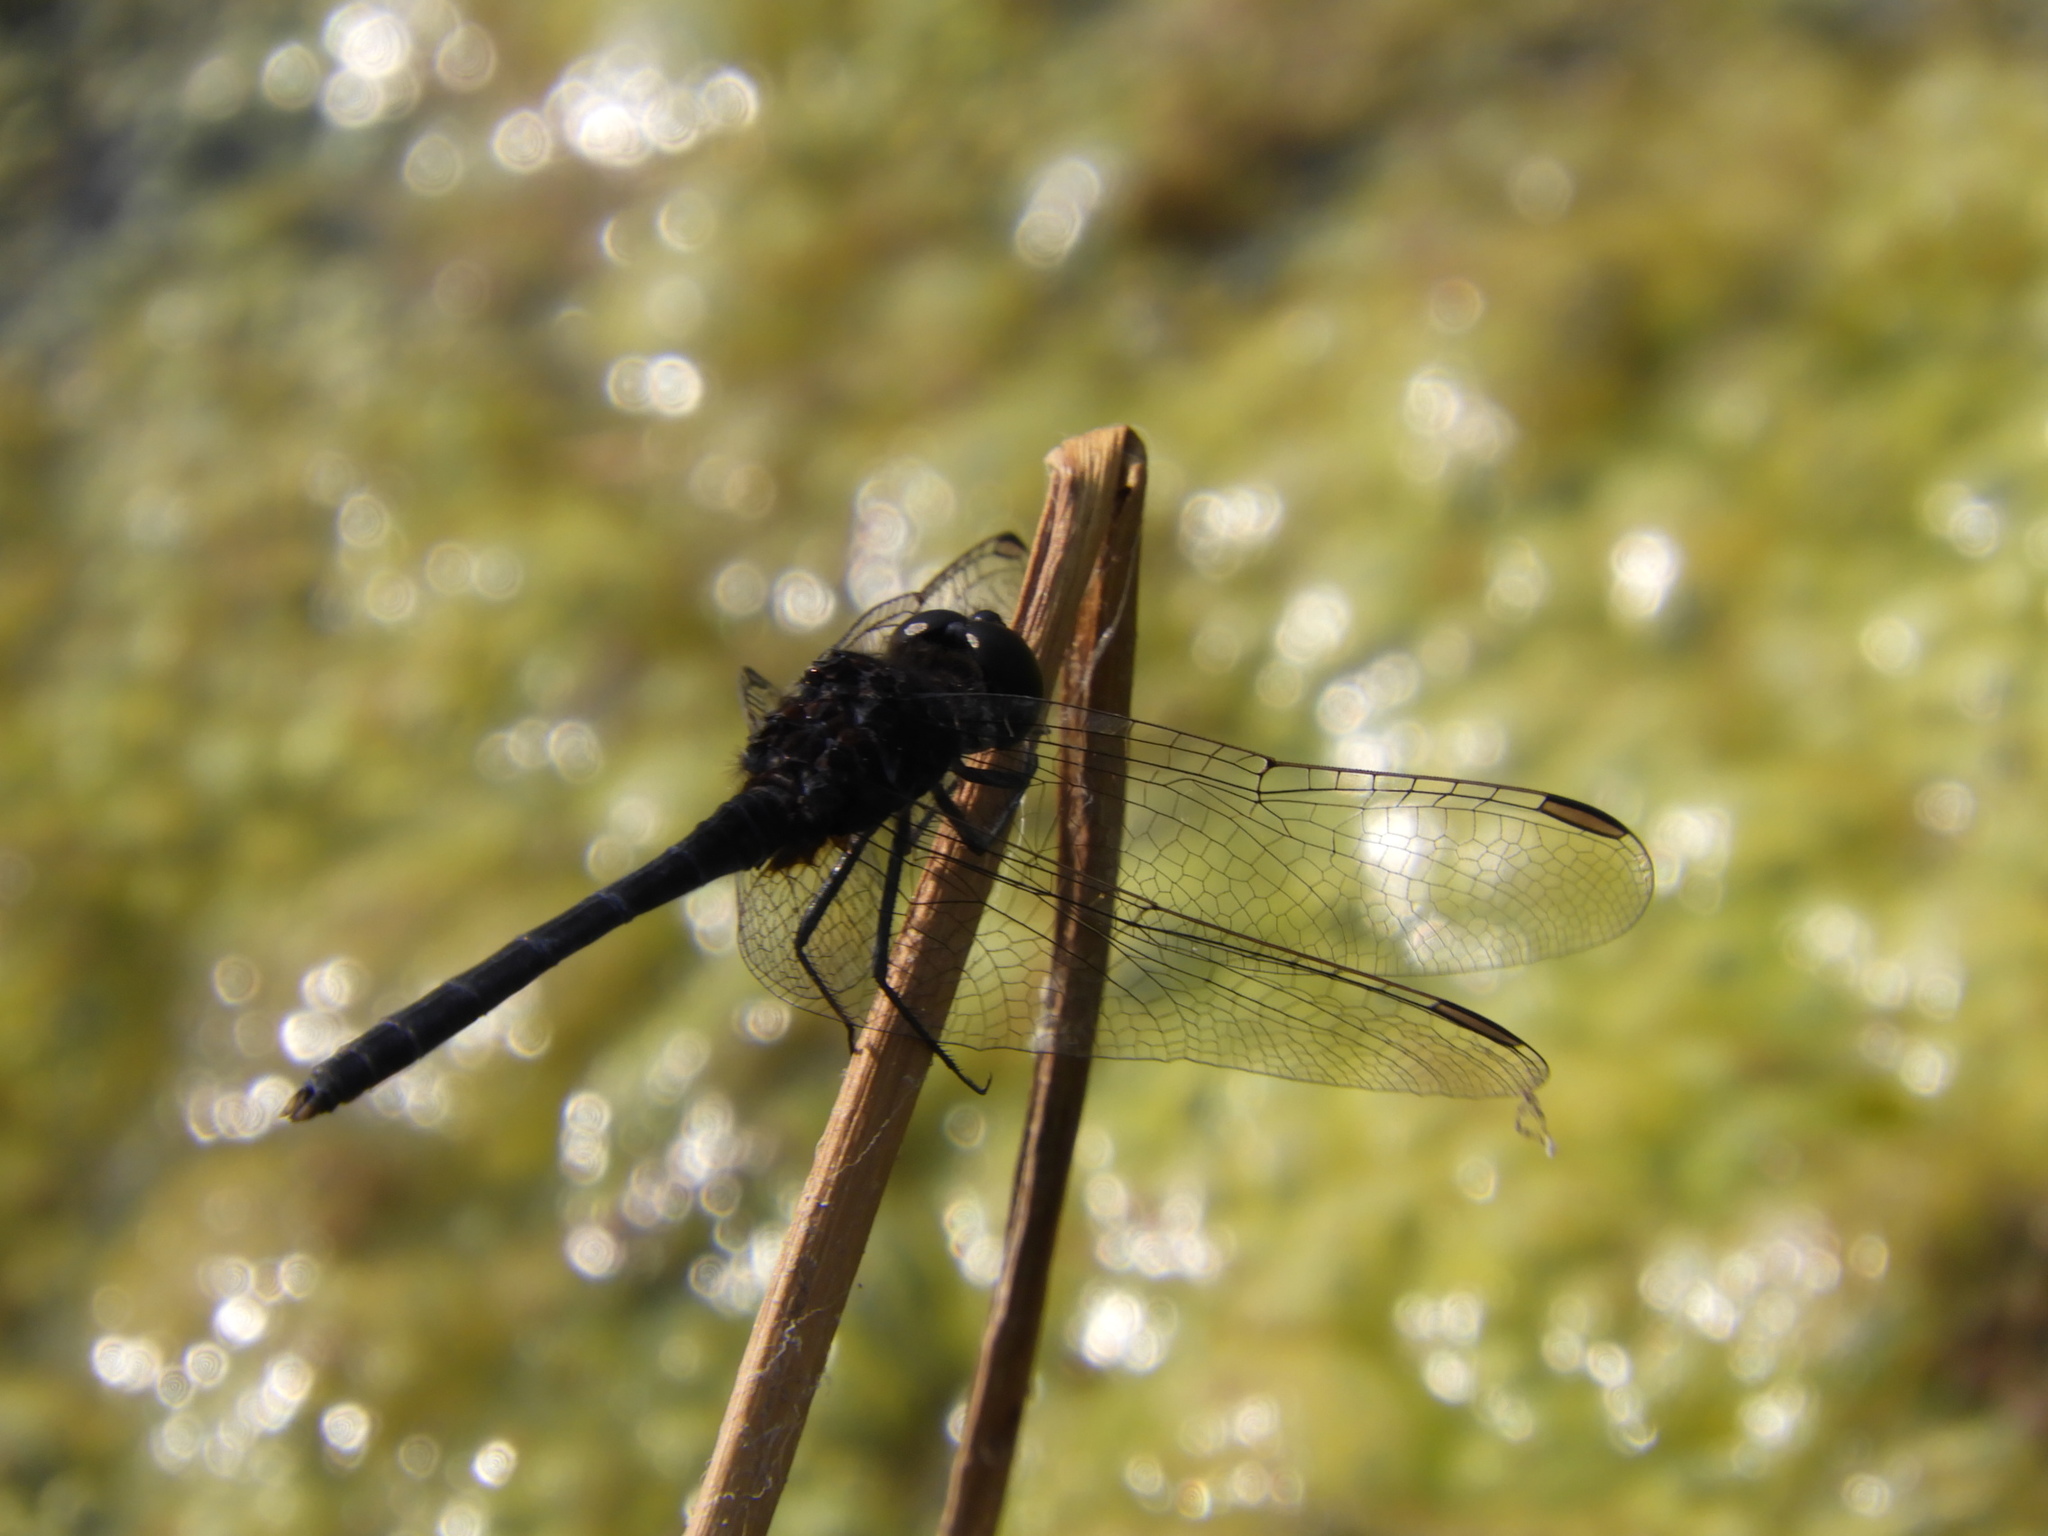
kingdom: Animalia
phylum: Arthropoda
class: Insecta
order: Odonata
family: Libellulidae
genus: Diplacodes
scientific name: Diplacodes lefebvrii
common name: Black percher
